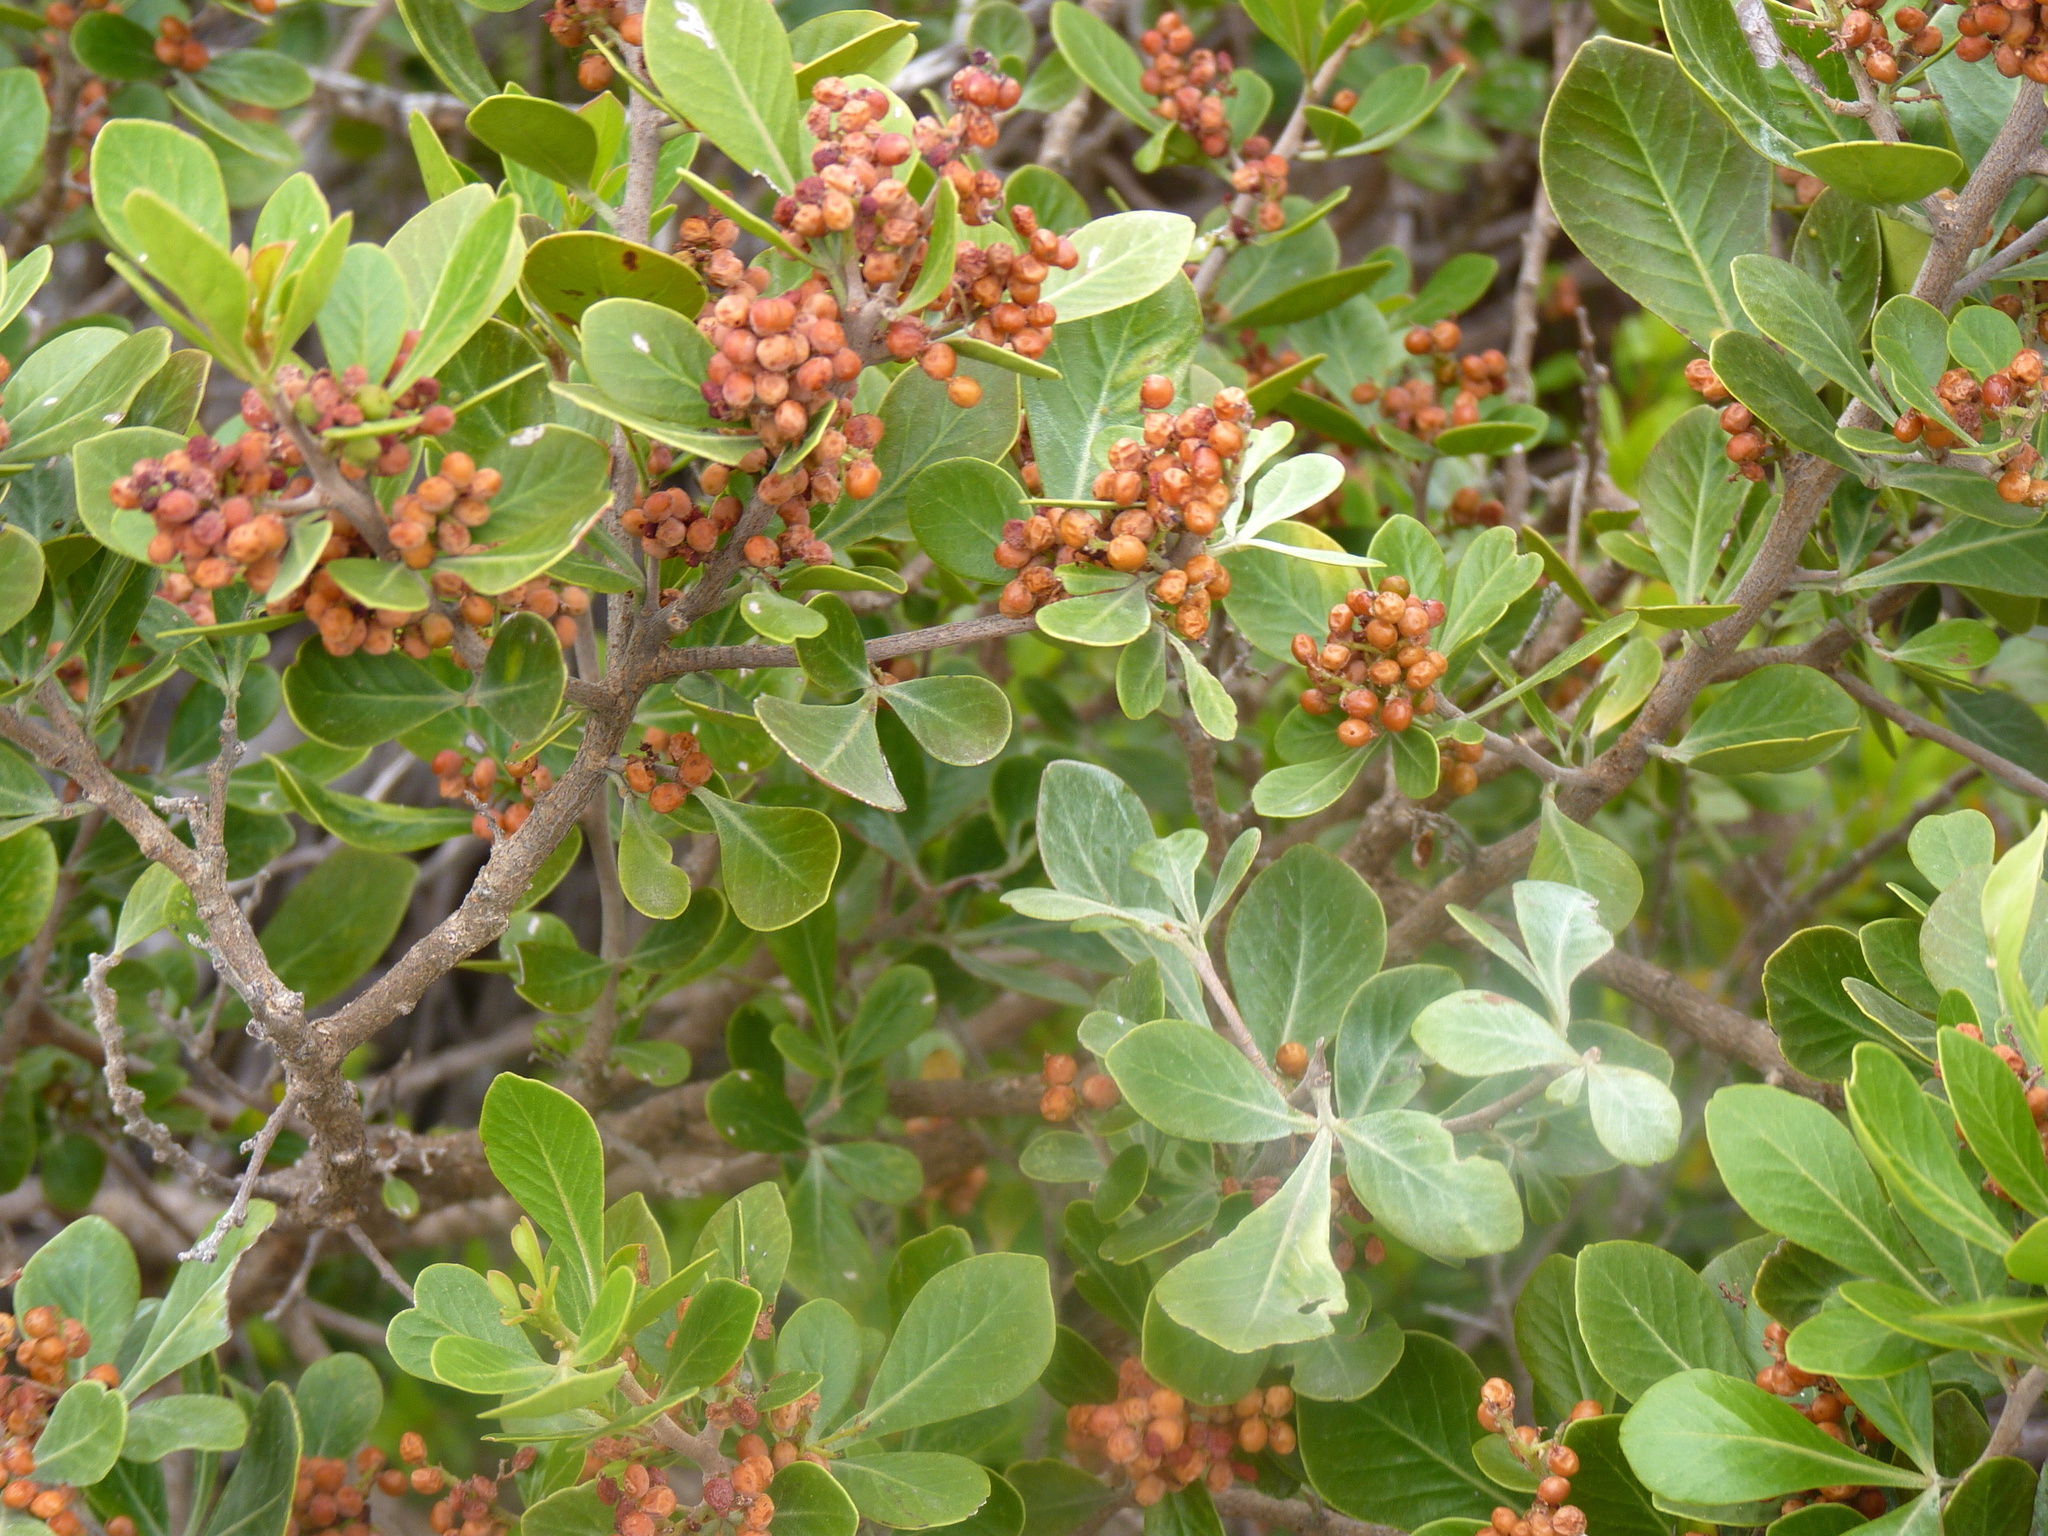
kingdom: Plantae
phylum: Tracheophyta
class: Magnoliopsida
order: Sapindales
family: Anacardiaceae
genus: Searsia
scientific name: Searsia lucida
